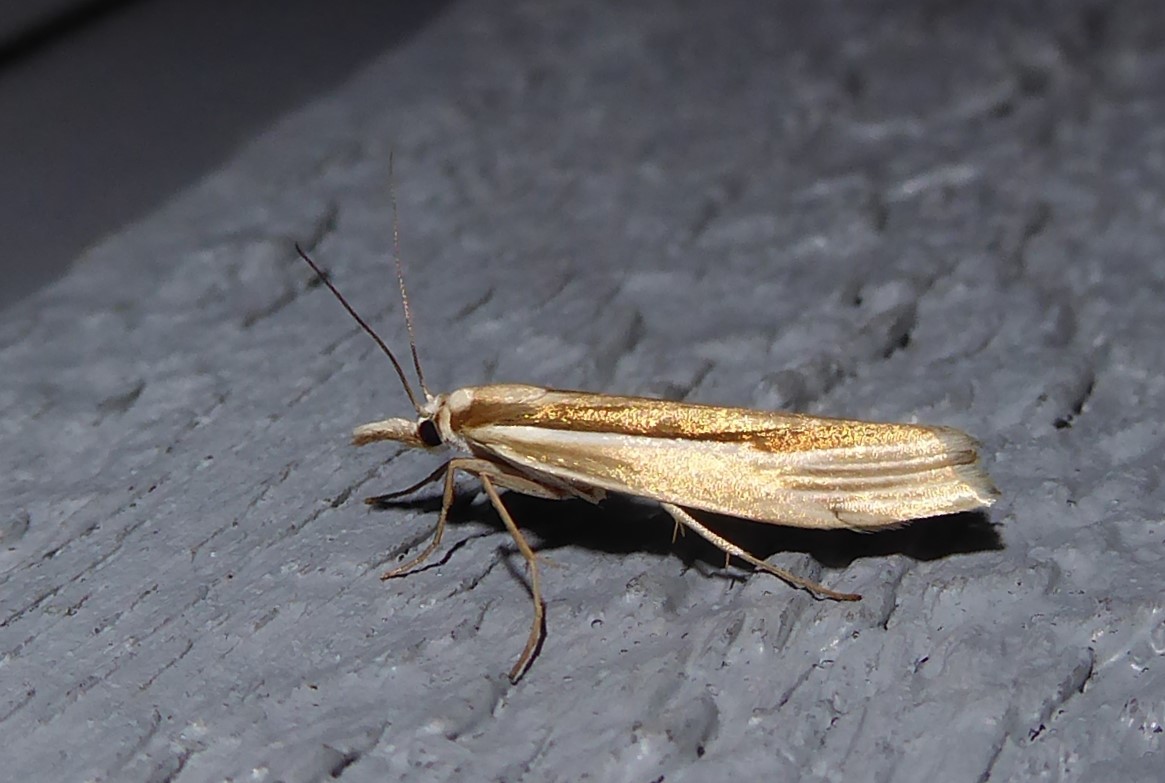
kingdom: Animalia
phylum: Arthropoda
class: Insecta
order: Lepidoptera
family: Crambidae
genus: Orocrambus
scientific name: Orocrambus ramosellus
